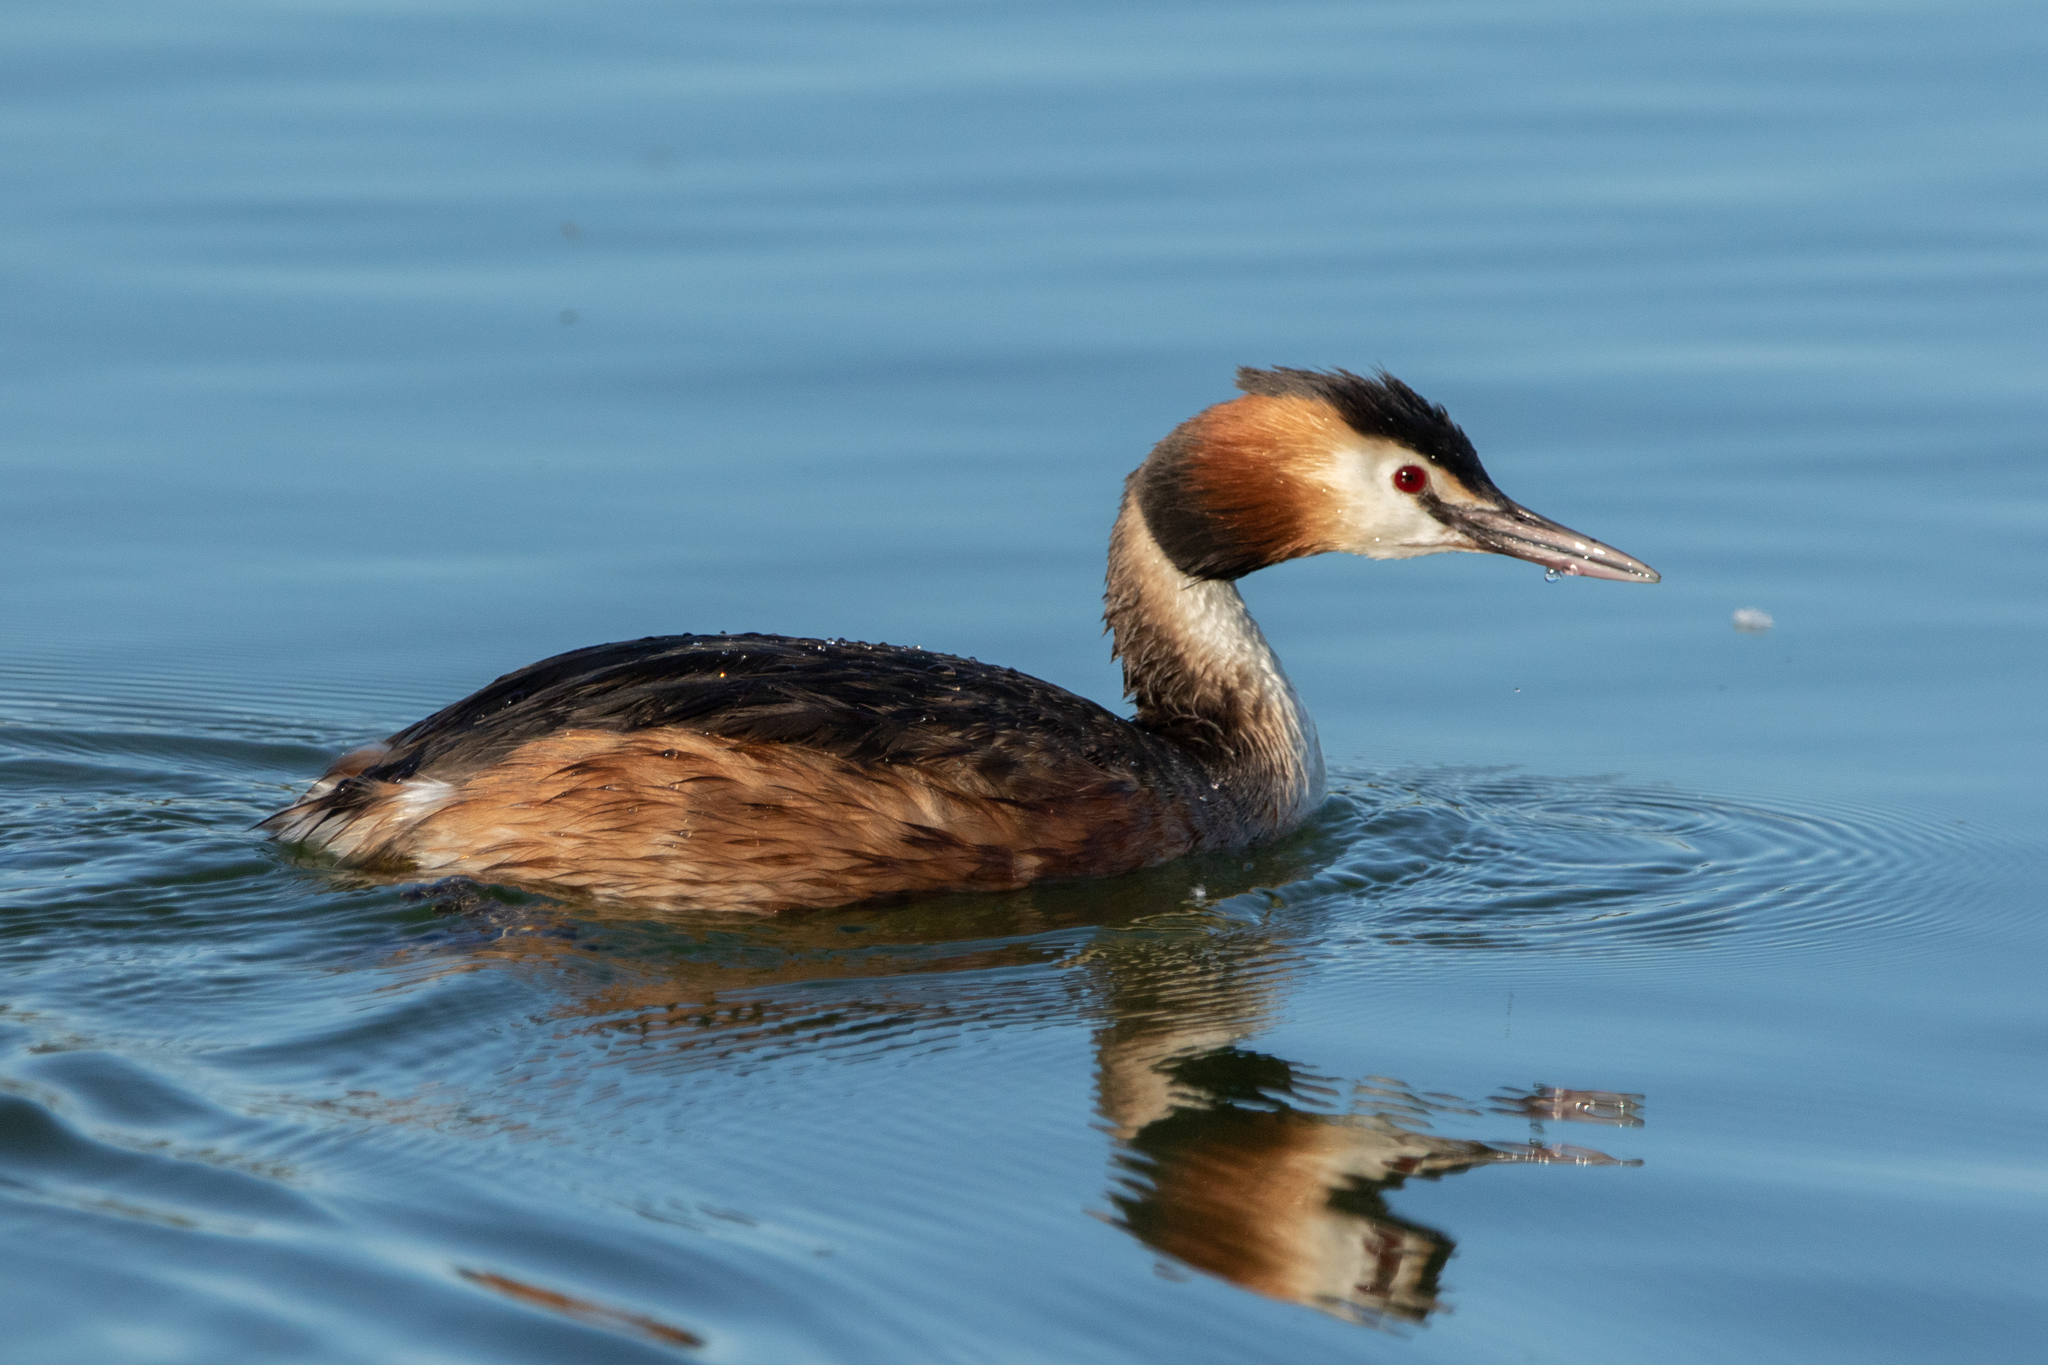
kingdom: Animalia
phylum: Chordata
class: Aves
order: Podicipediformes
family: Podicipedidae
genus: Podiceps
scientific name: Podiceps cristatus
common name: Great crested grebe
